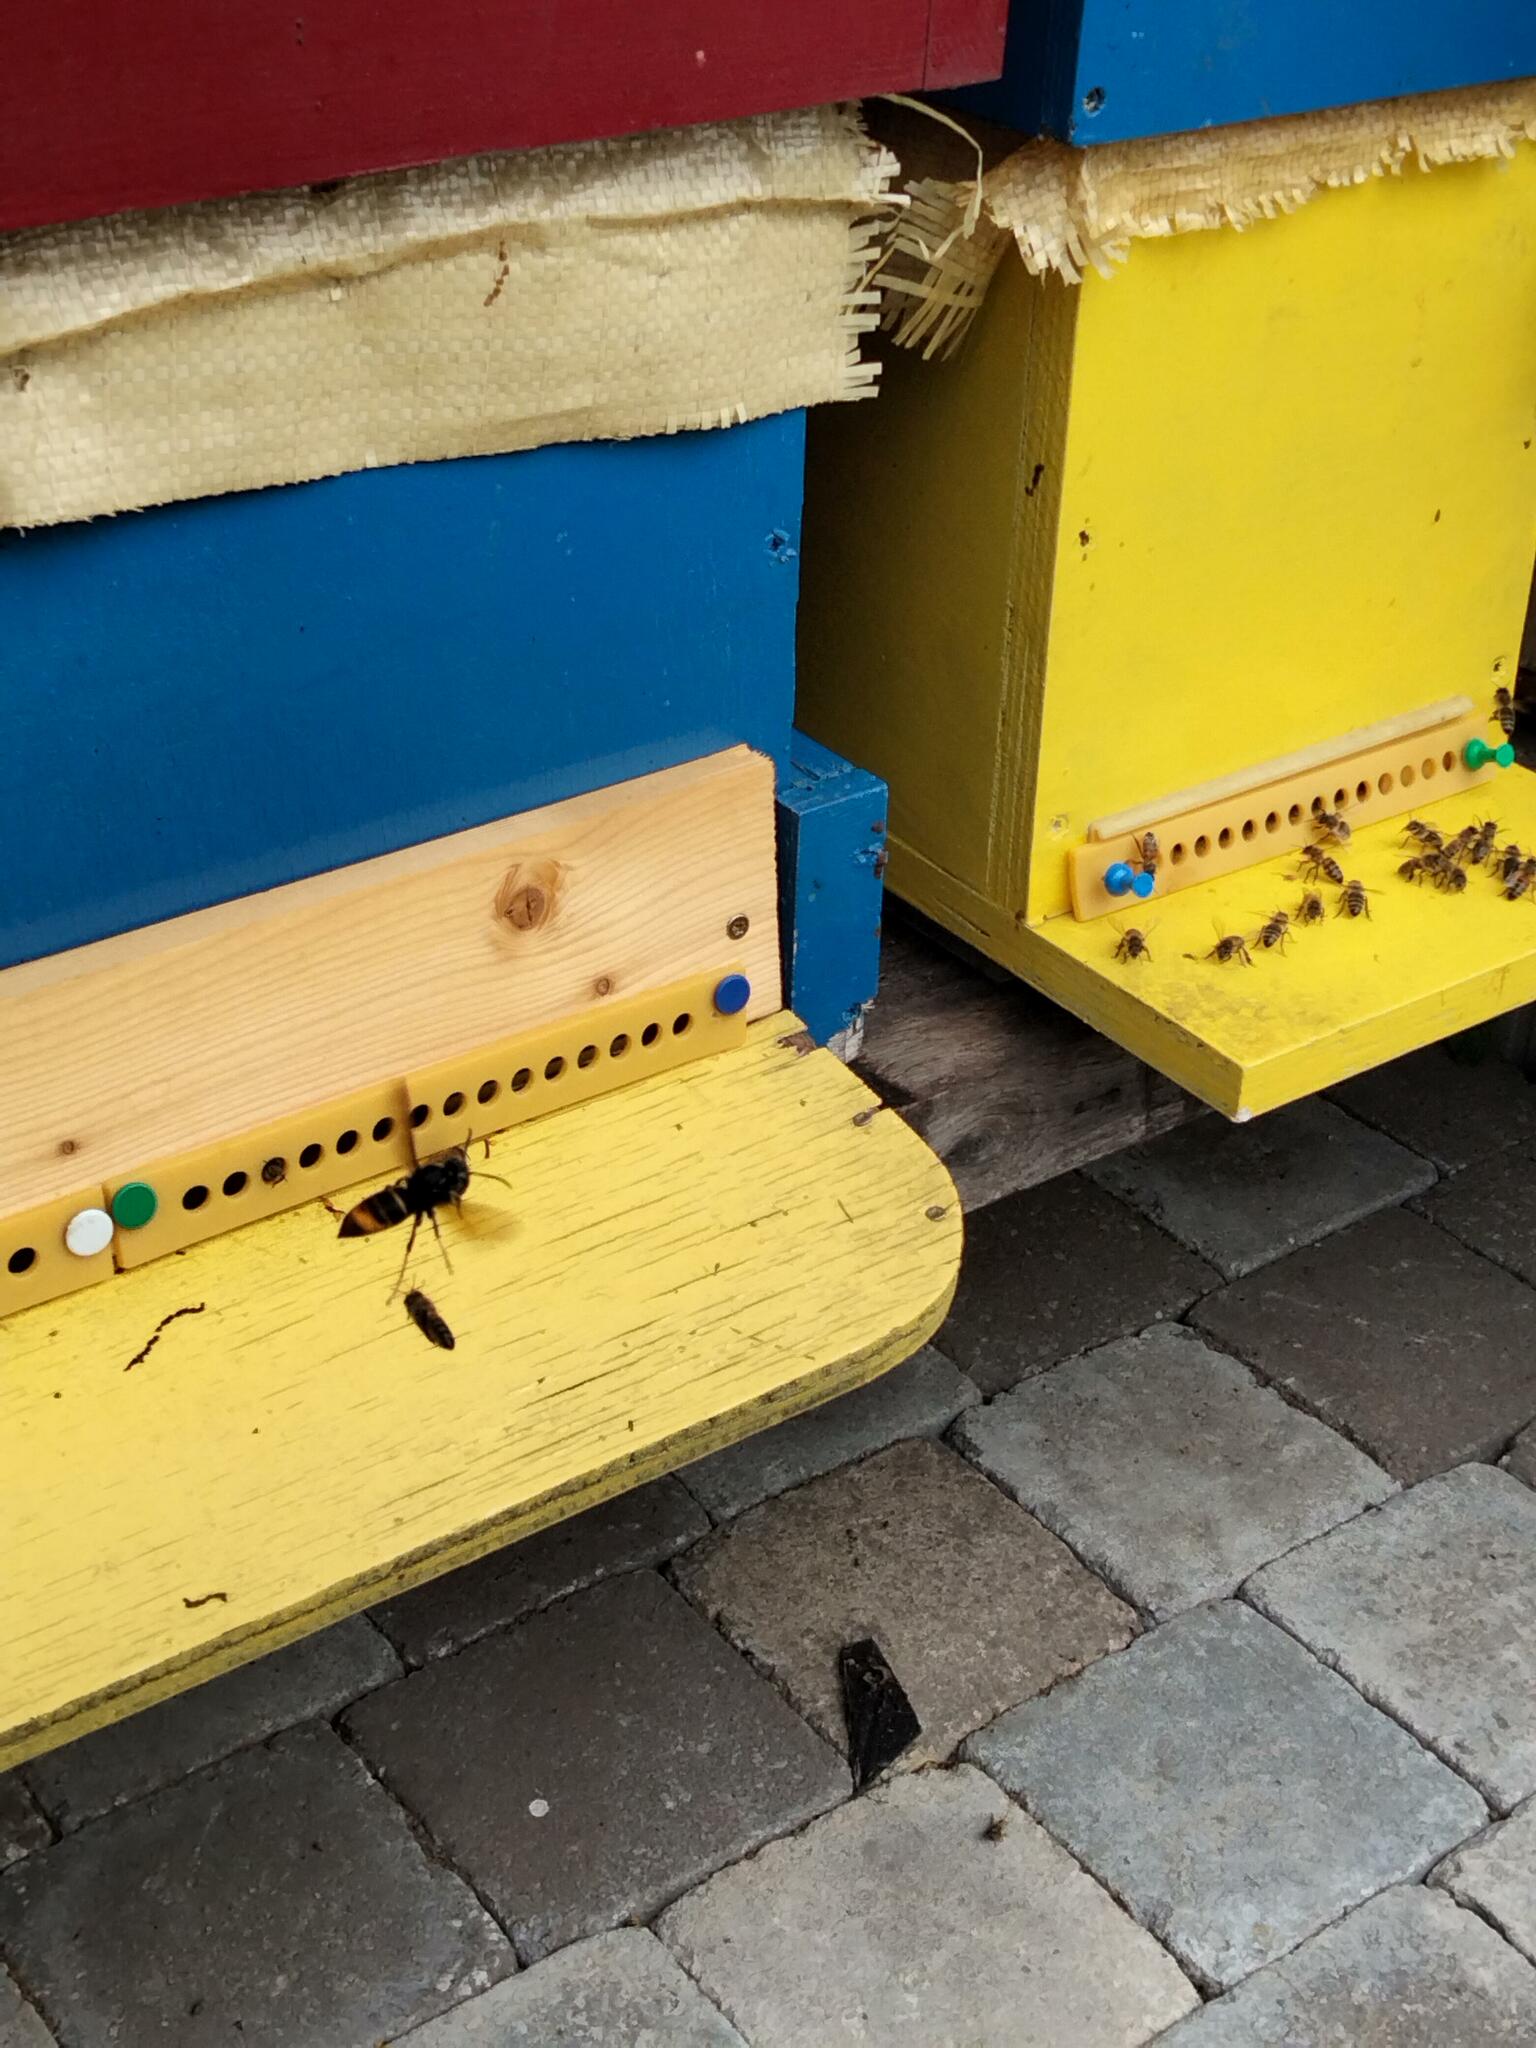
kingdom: Animalia
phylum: Arthropoda
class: Insecta
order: Hymenoptera
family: Vespidae
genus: Vespa
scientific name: Vespa velutina
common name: Asian hornet
